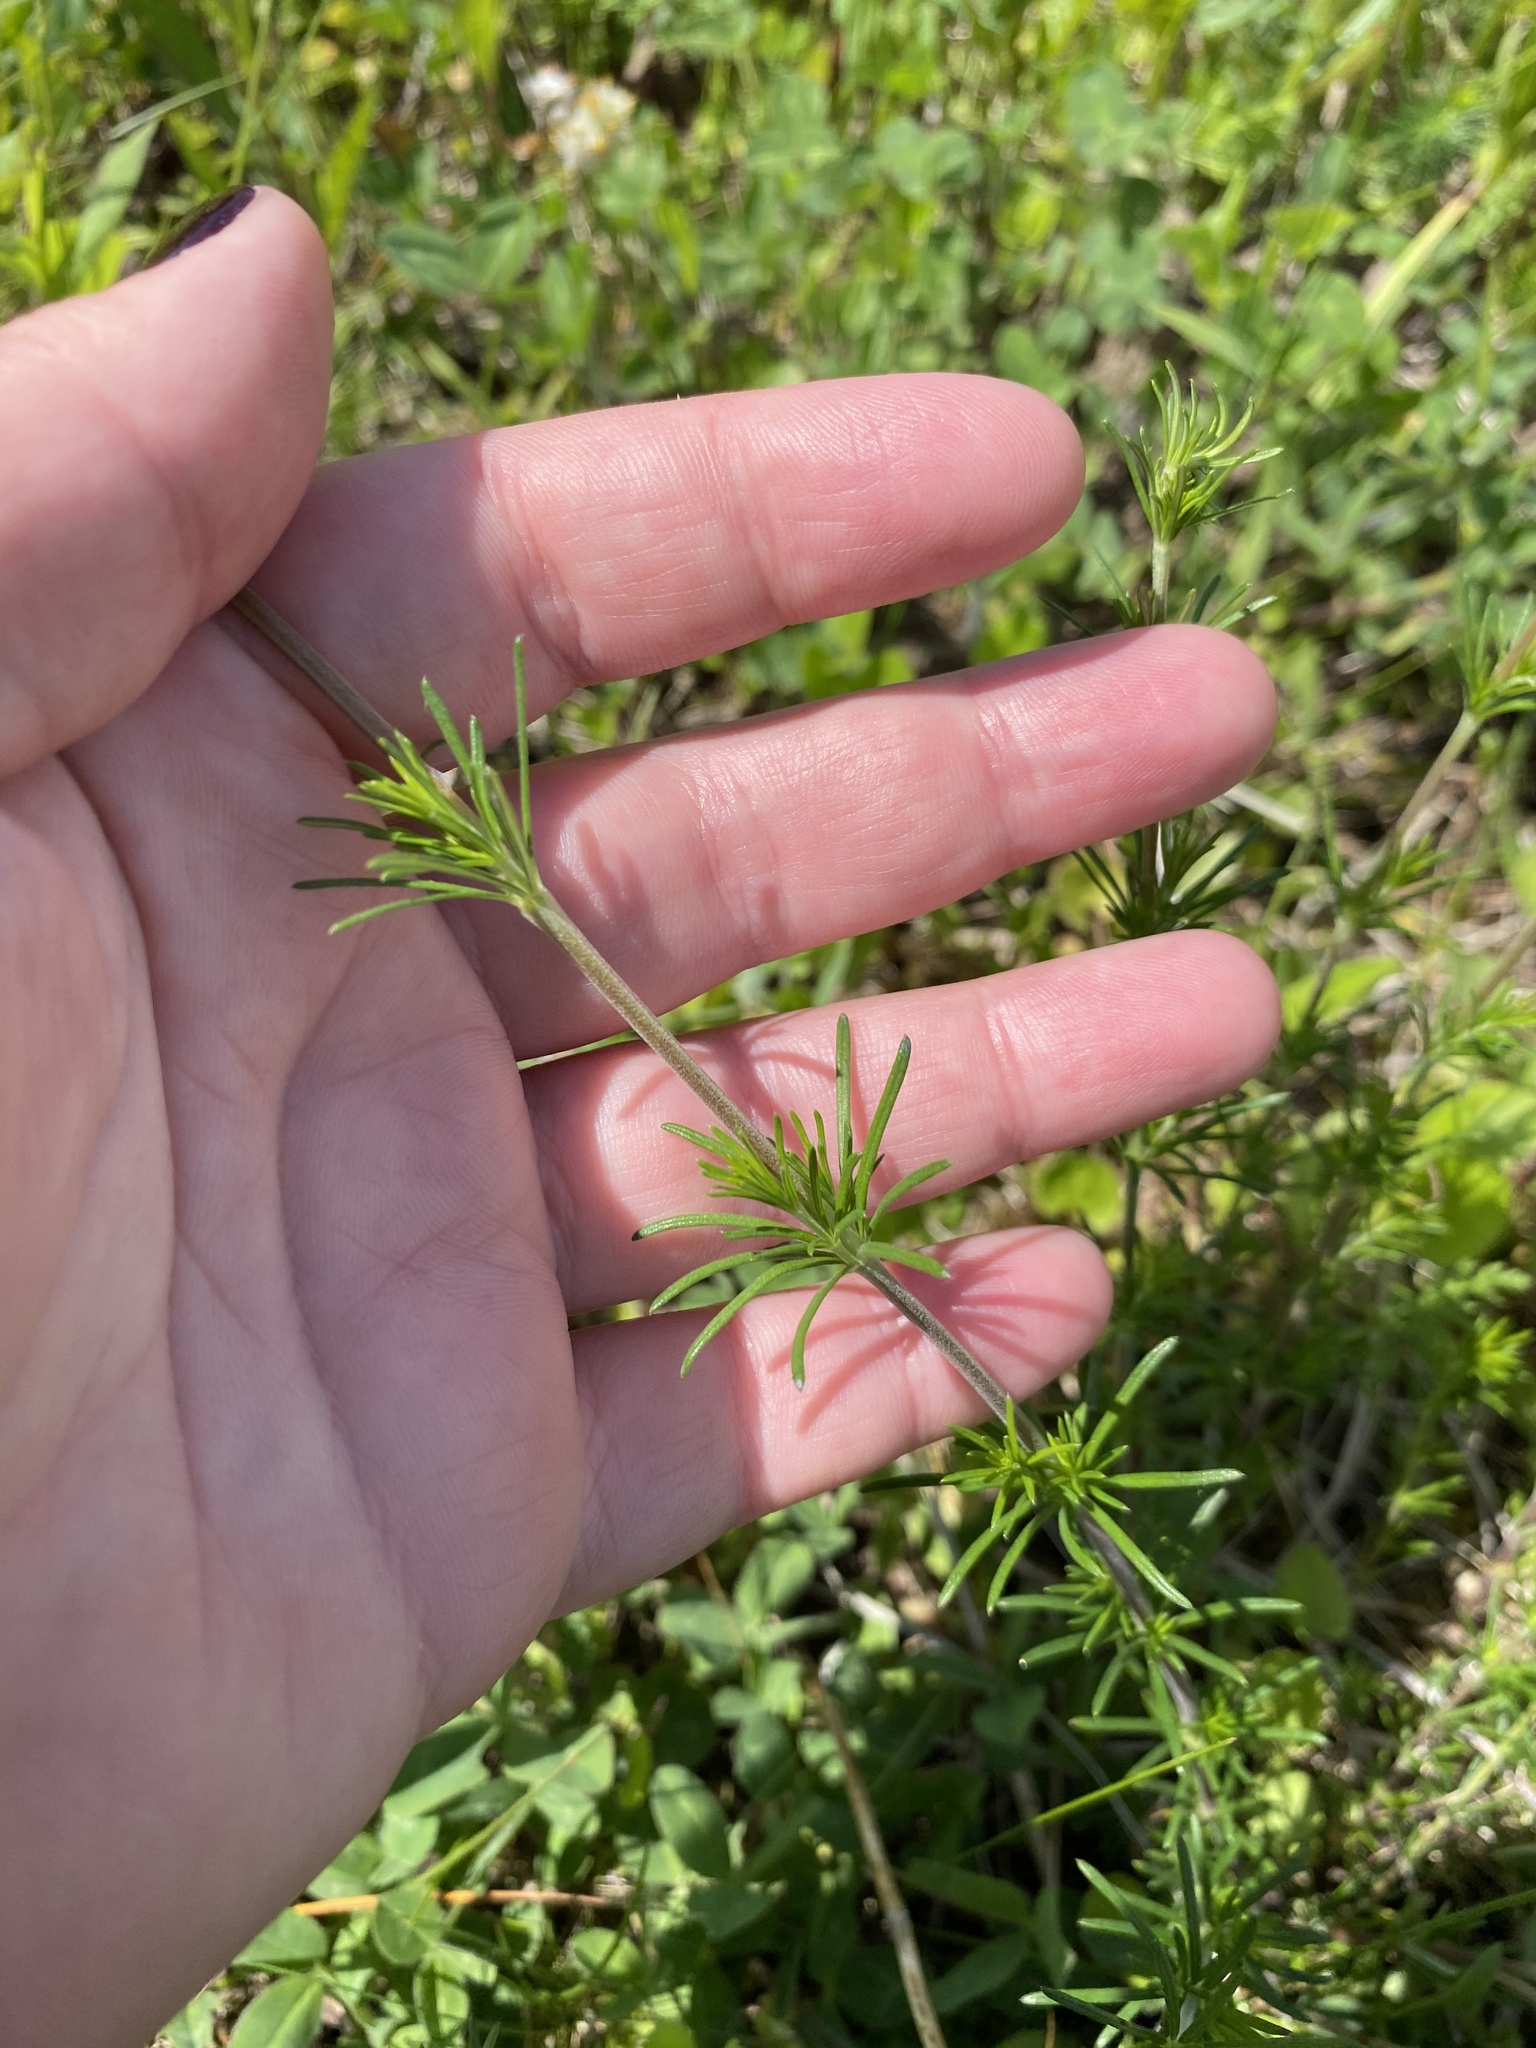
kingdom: Plantae
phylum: Tracheophyta
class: Magnoliopsida
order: Gentianales
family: Rubiaceae
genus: Galium
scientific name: Galium verum
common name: Lady's bedstraw
